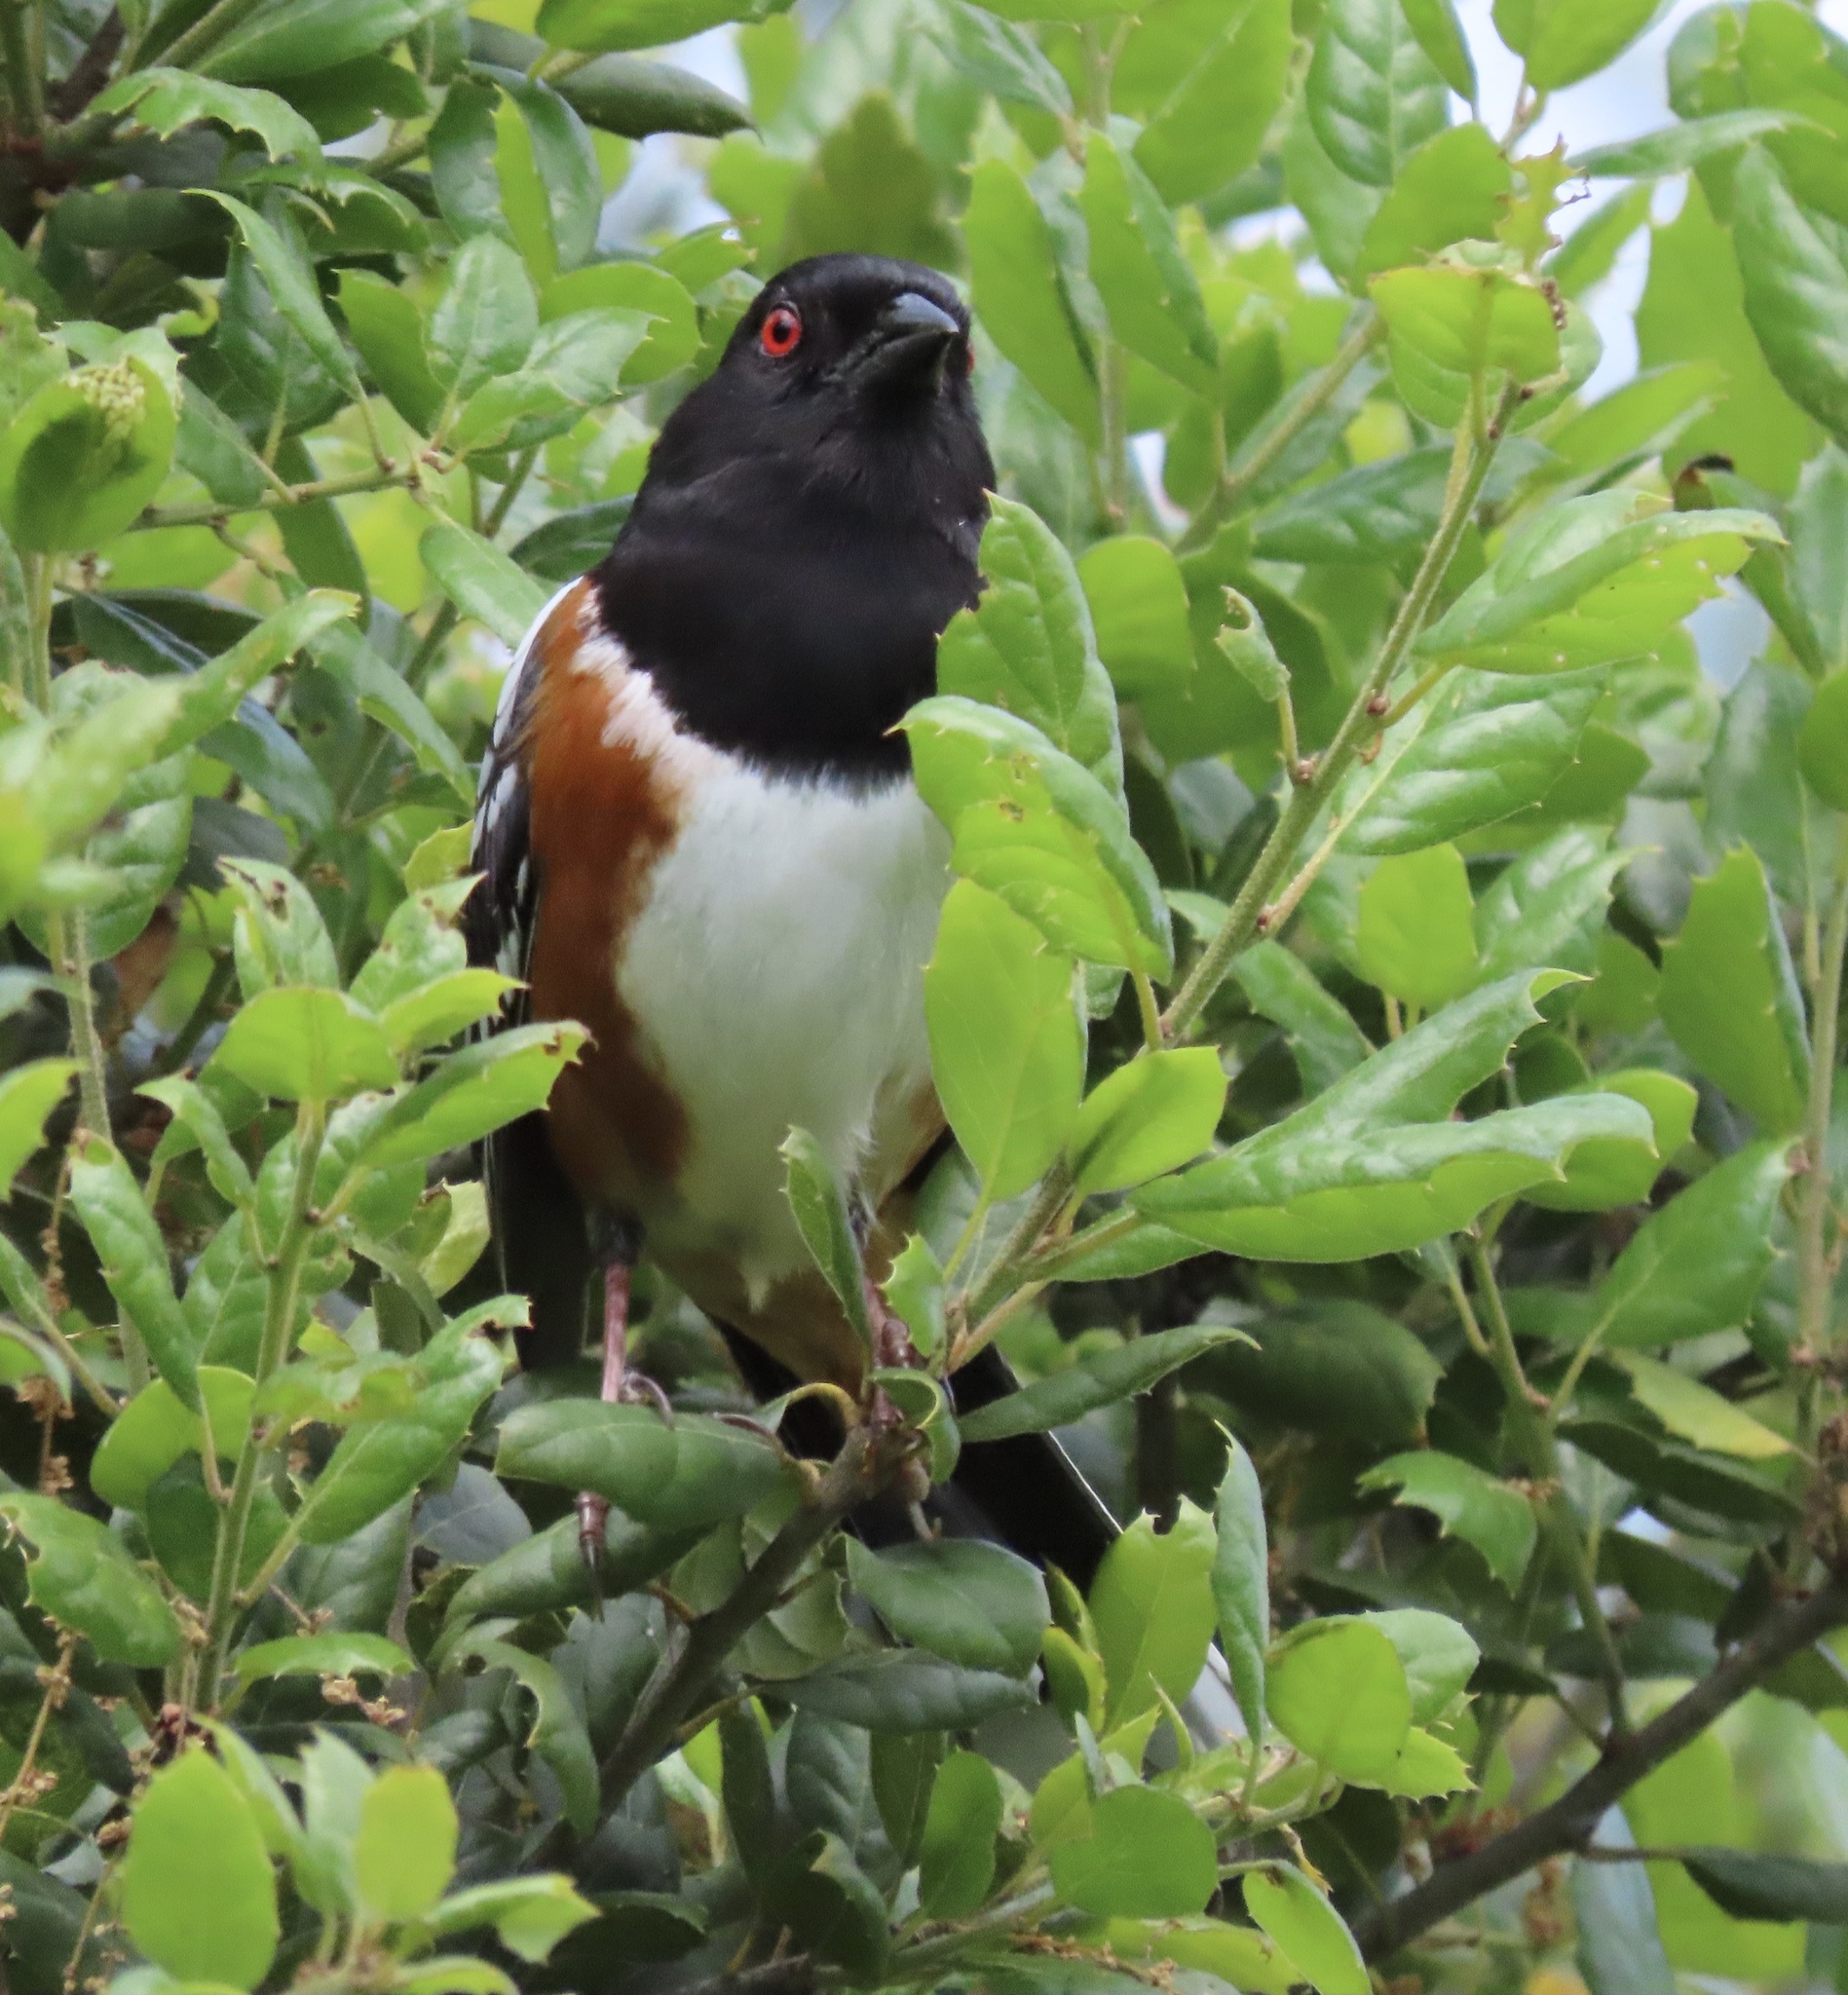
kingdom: Animalia
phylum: Chordata
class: Aves
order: Passeriformes
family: Passerellidae
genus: Pipilo
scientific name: Pipilo maculatus
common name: Spotted towhee
